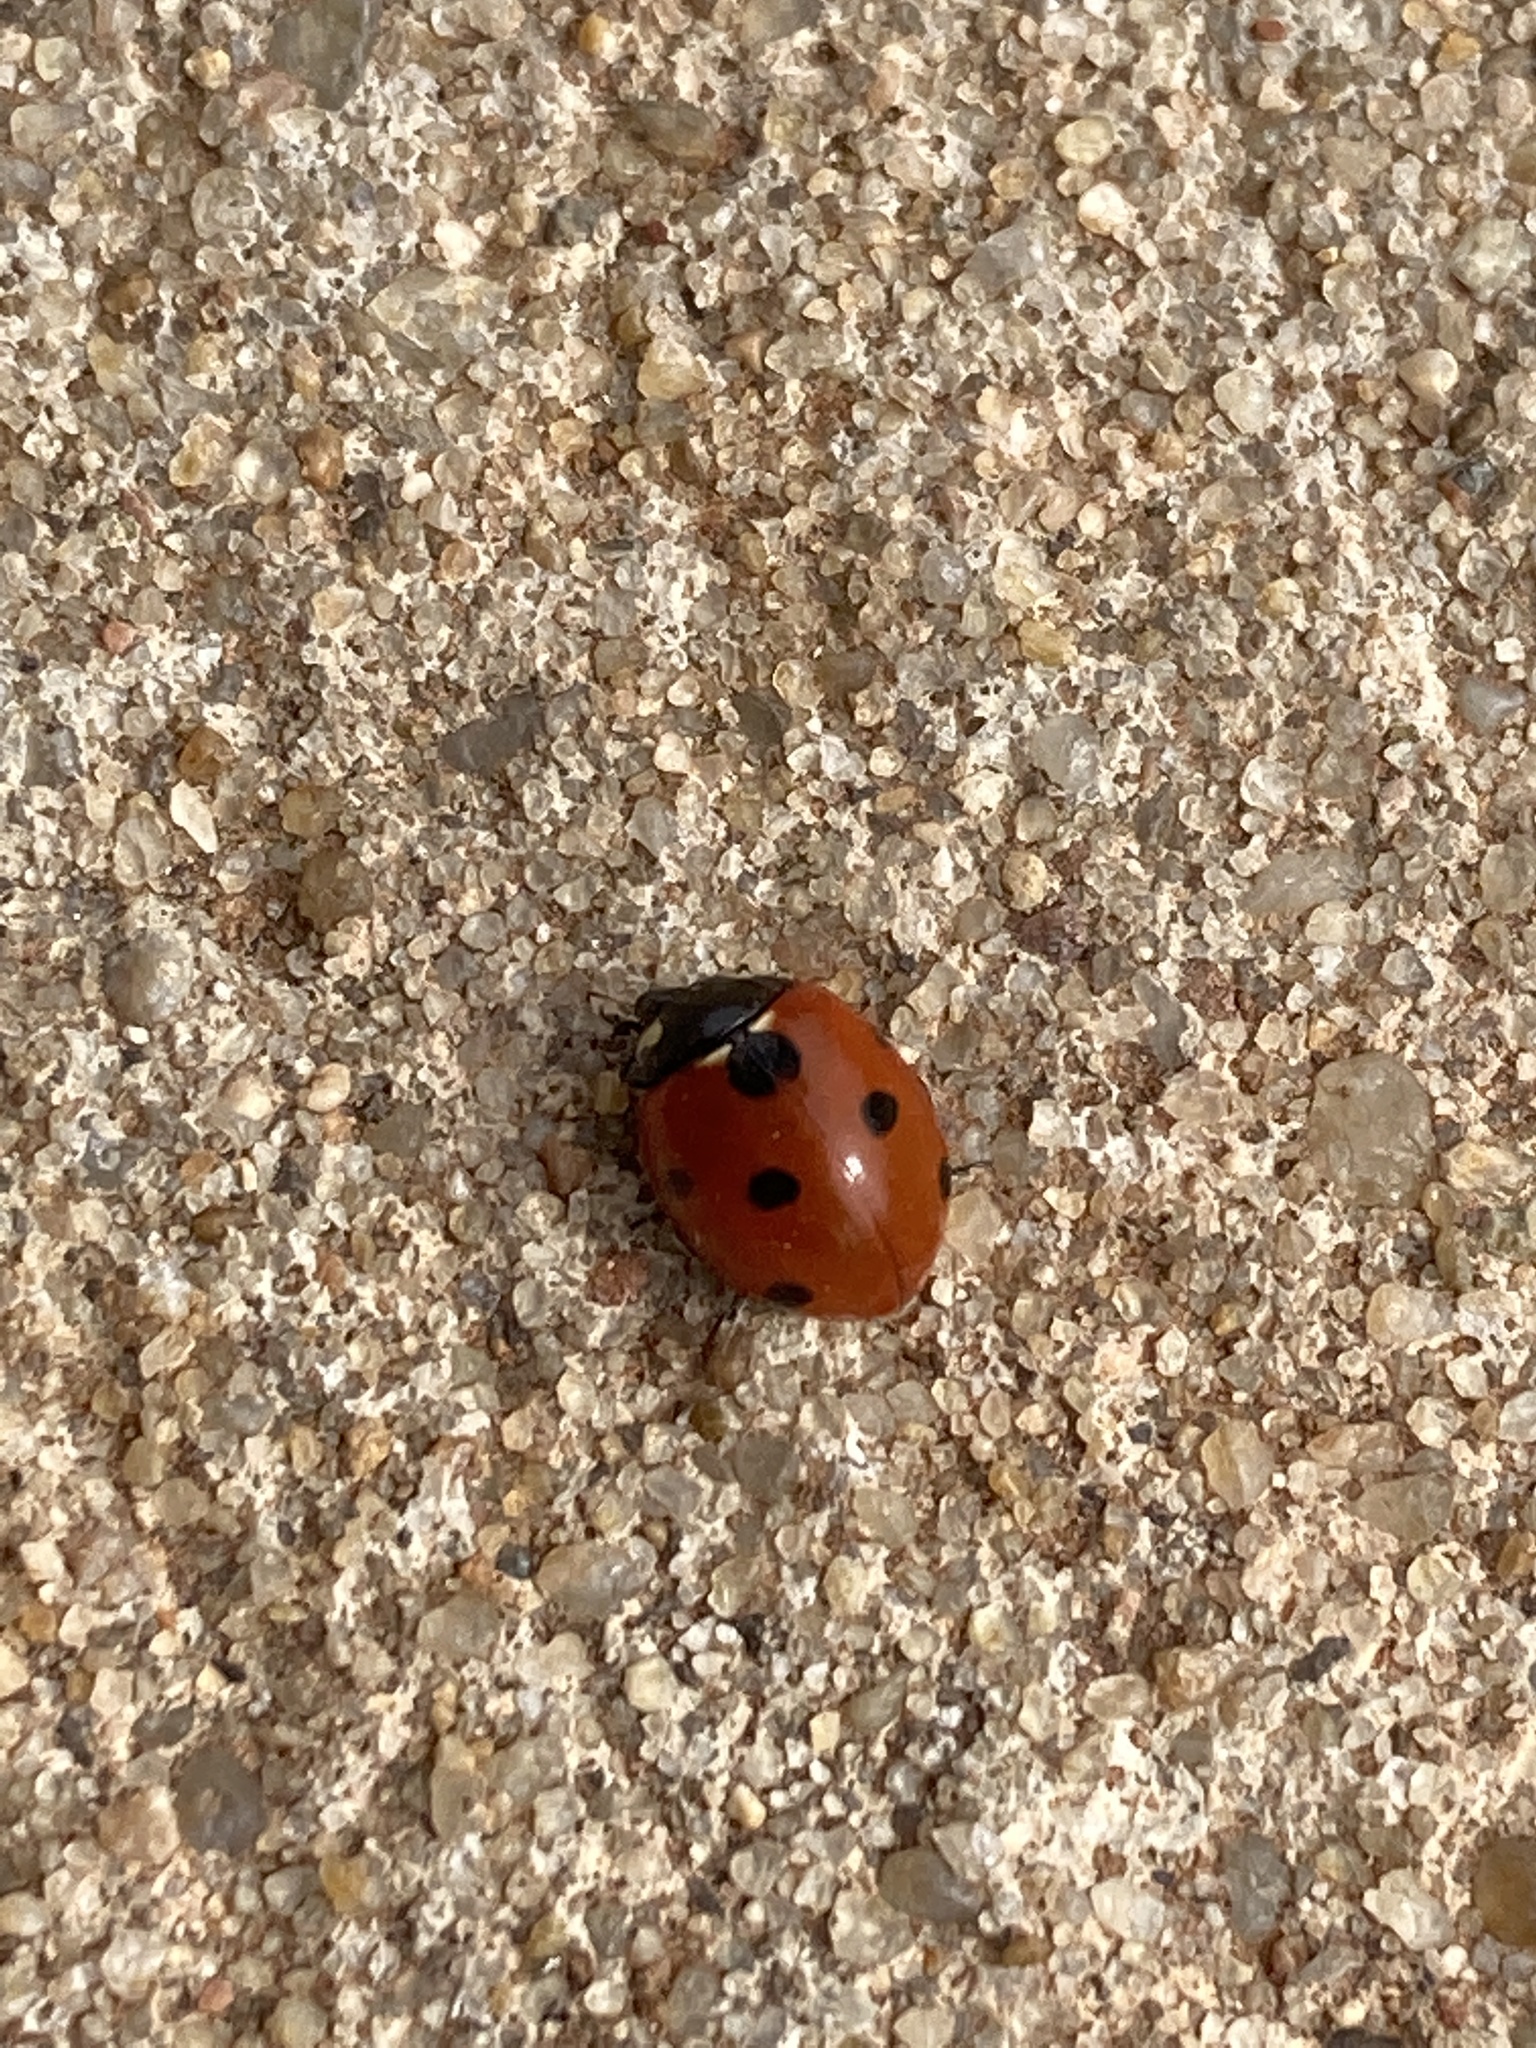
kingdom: Animalia
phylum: Arthropoda
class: Insecta
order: Coleoptera
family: Coccinellidae
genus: Coccinella
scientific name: Coccinella septempunctata
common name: Sevenspotted lady beetle
